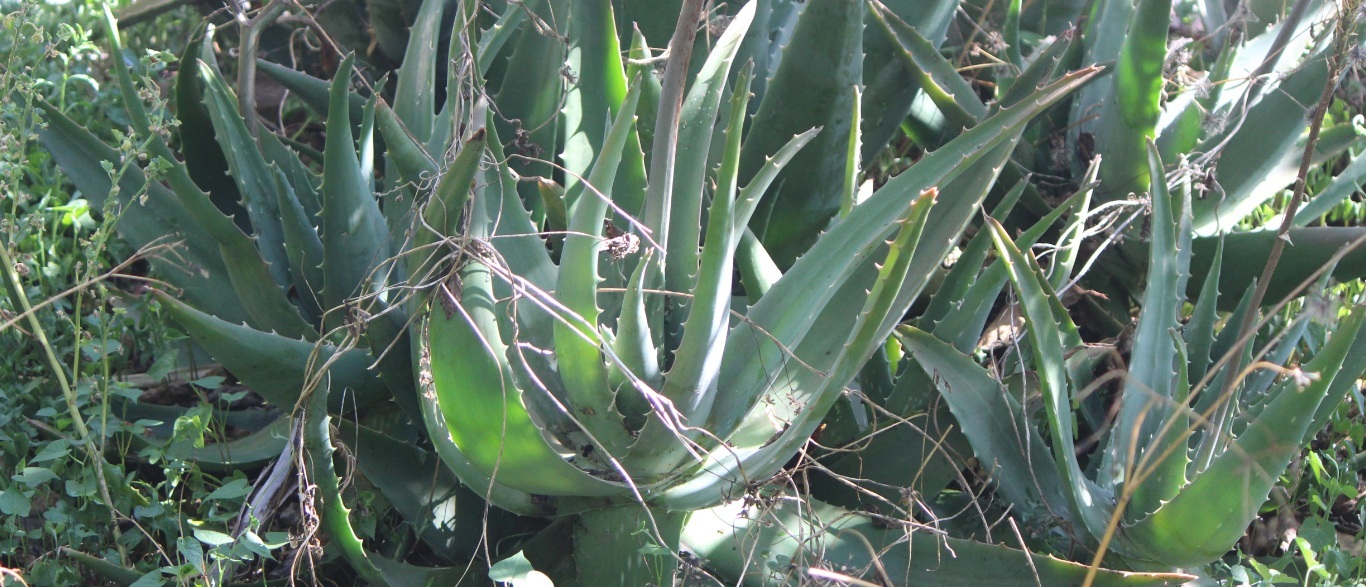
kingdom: Plantae
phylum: Tracheophyta
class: Liliopsida
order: Asparagales
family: Asphodelaceae
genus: Aloe
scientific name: Aloe officinalis
